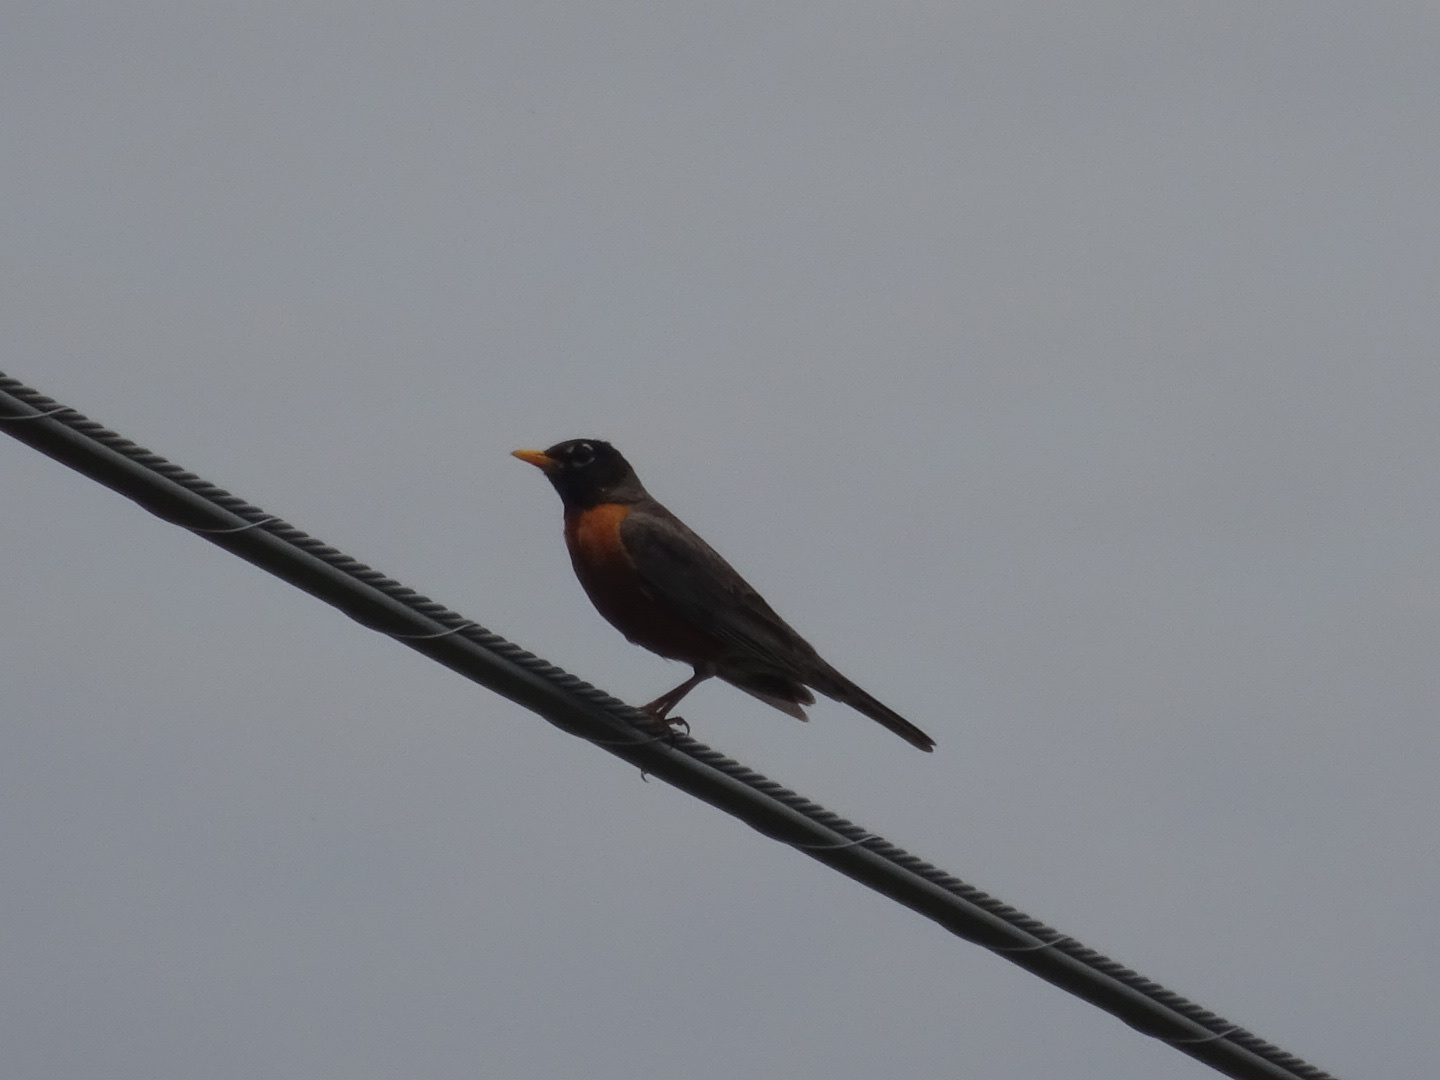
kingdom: Animalia
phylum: Chordata
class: Aves
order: Passeriformes
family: Turdidae
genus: Turdus
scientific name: Turdus migratorius
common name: American robin
